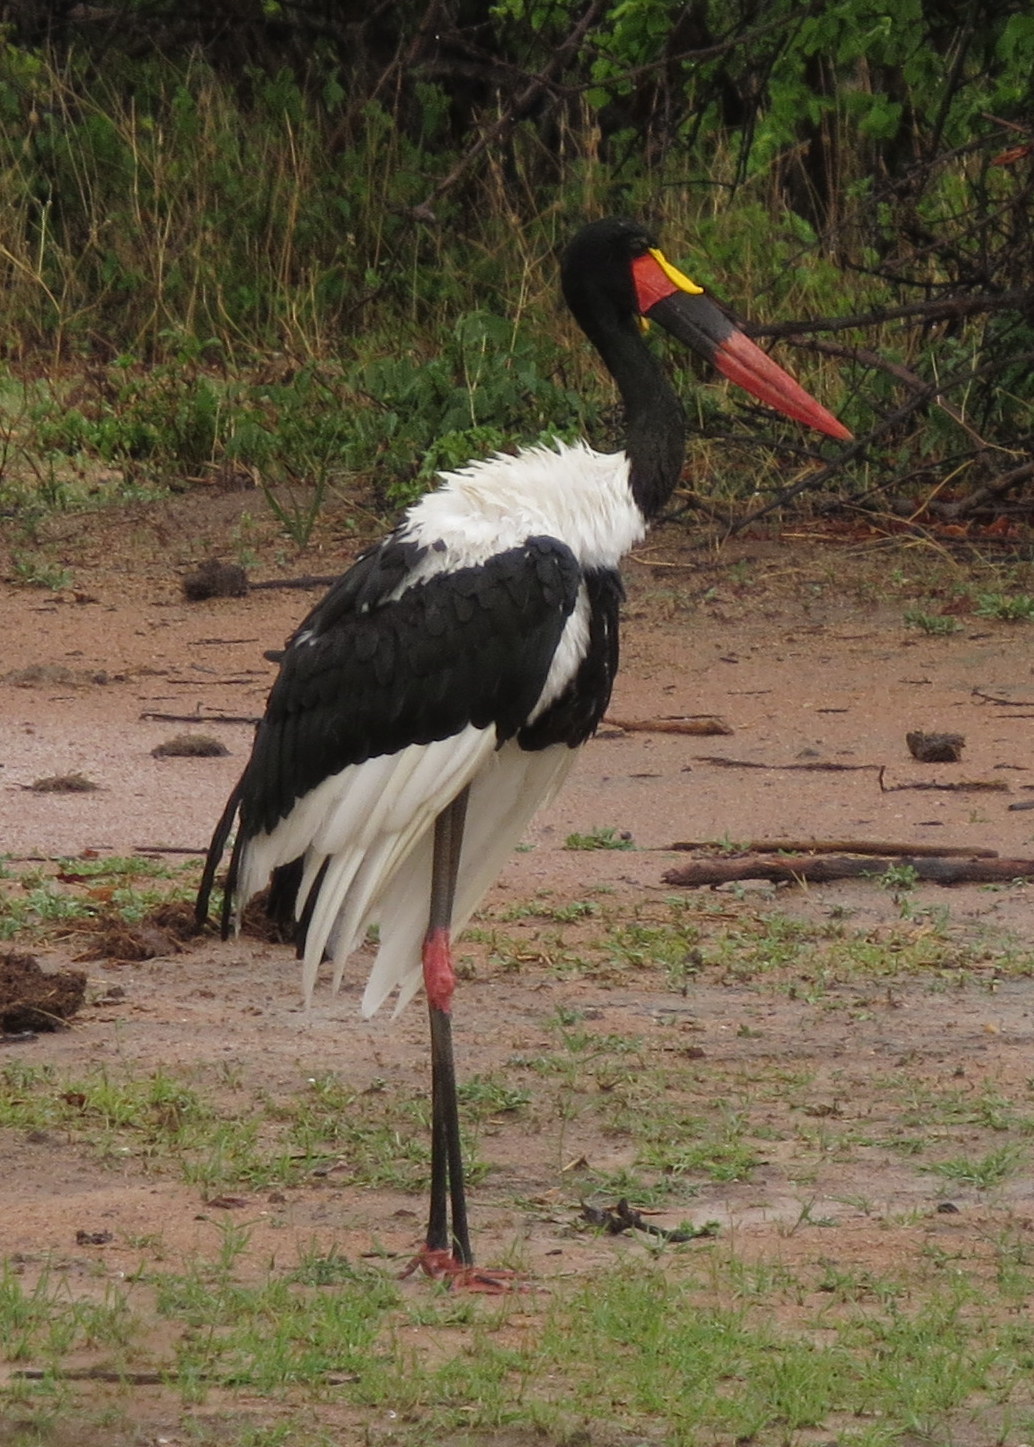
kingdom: Animalia
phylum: Chordata
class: Aves
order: Ciconiiformes
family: Ciconiidae
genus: Ephippiorhynchus
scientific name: Ephippiorhynchus senegalensis
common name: Saddle-billed stork
